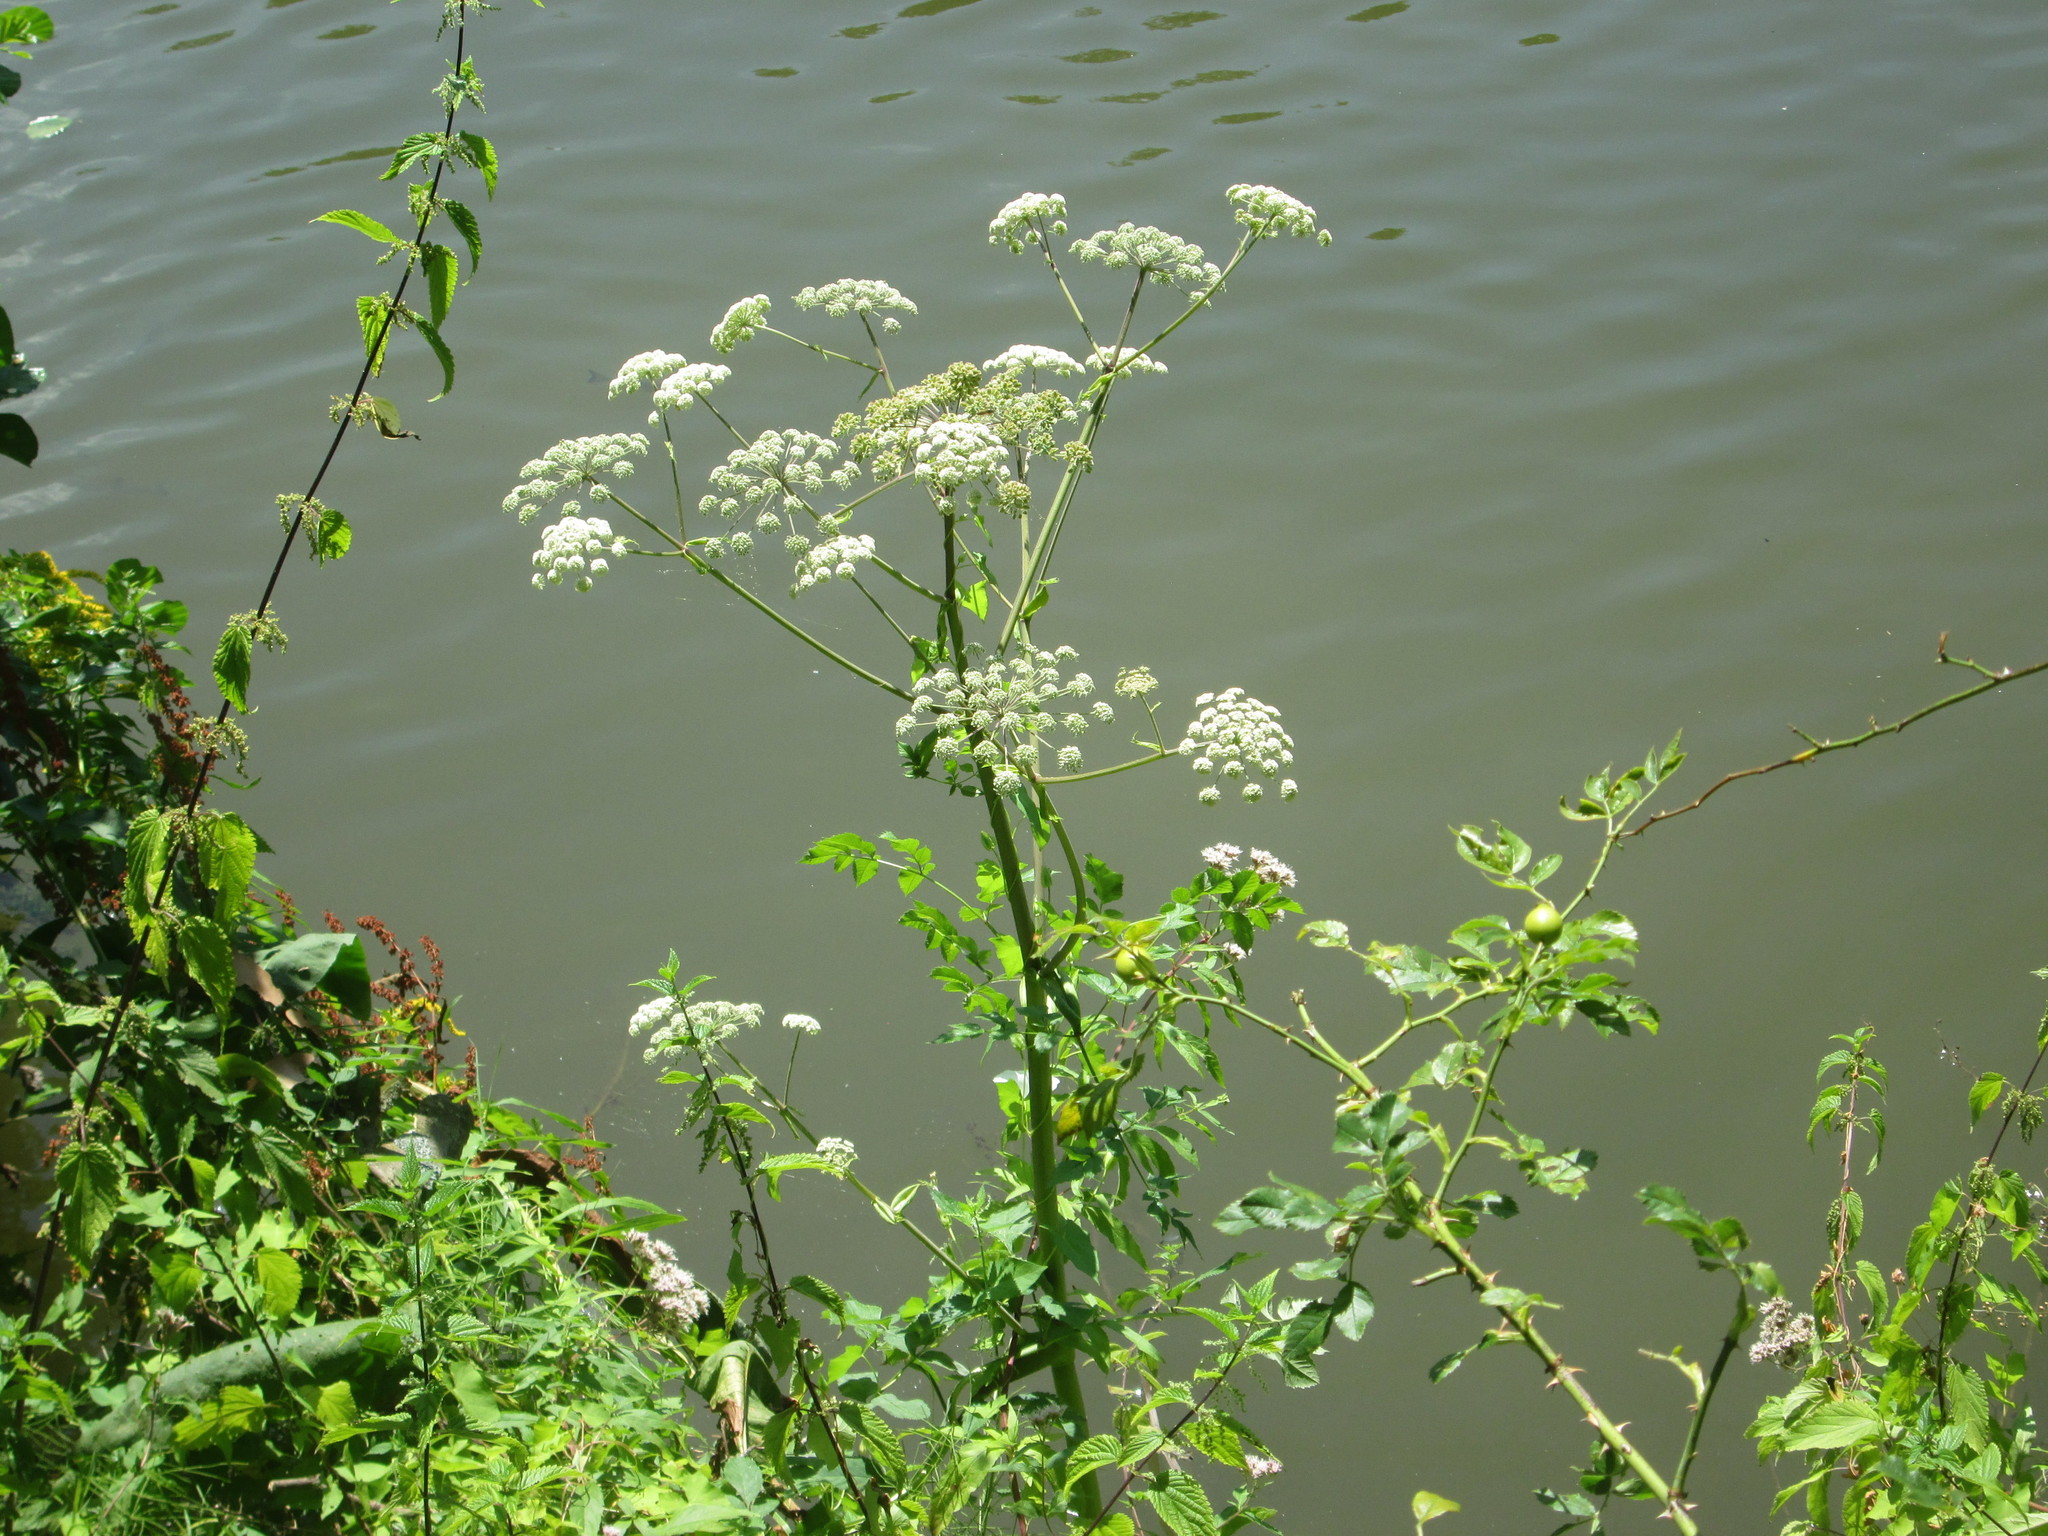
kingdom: Plantae
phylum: Tracheophyta
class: Magnoliopsida
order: Apiales
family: Apiaceae
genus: Angelica
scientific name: Angelica sylvestris
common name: Wild angelica
